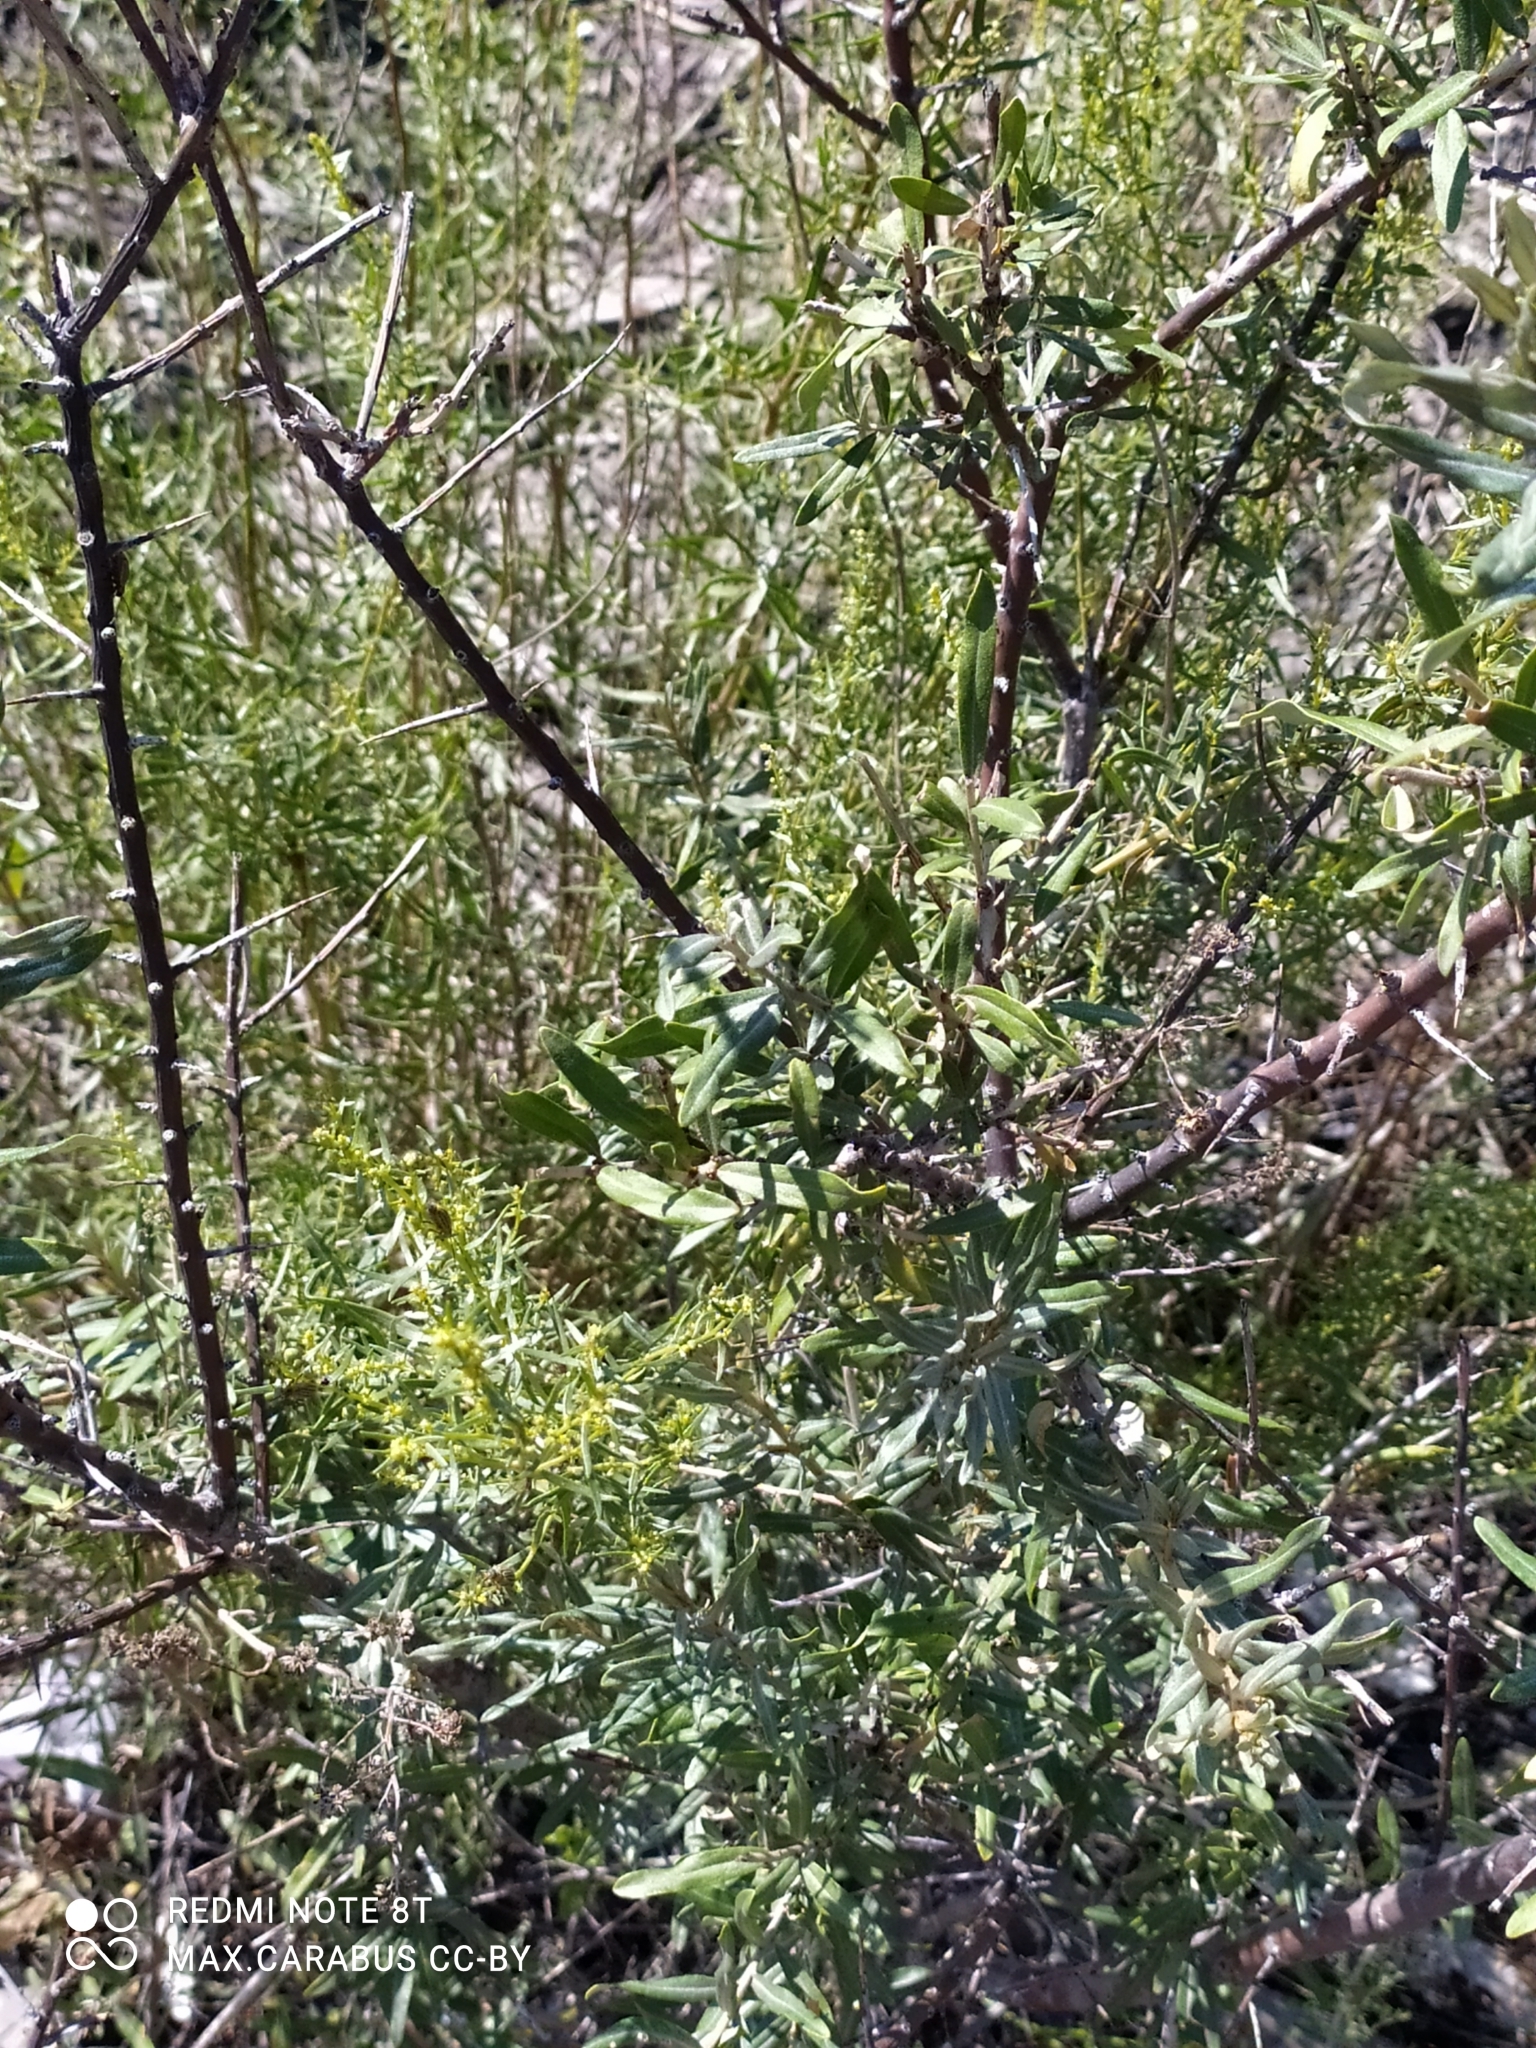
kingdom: Plantae
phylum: Tracheophyta
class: Magnoliopsida
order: Rosales
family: Elaeagnaceae
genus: Hippophae
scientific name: Hippophae rhamnoides
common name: Sea-buckthorn
